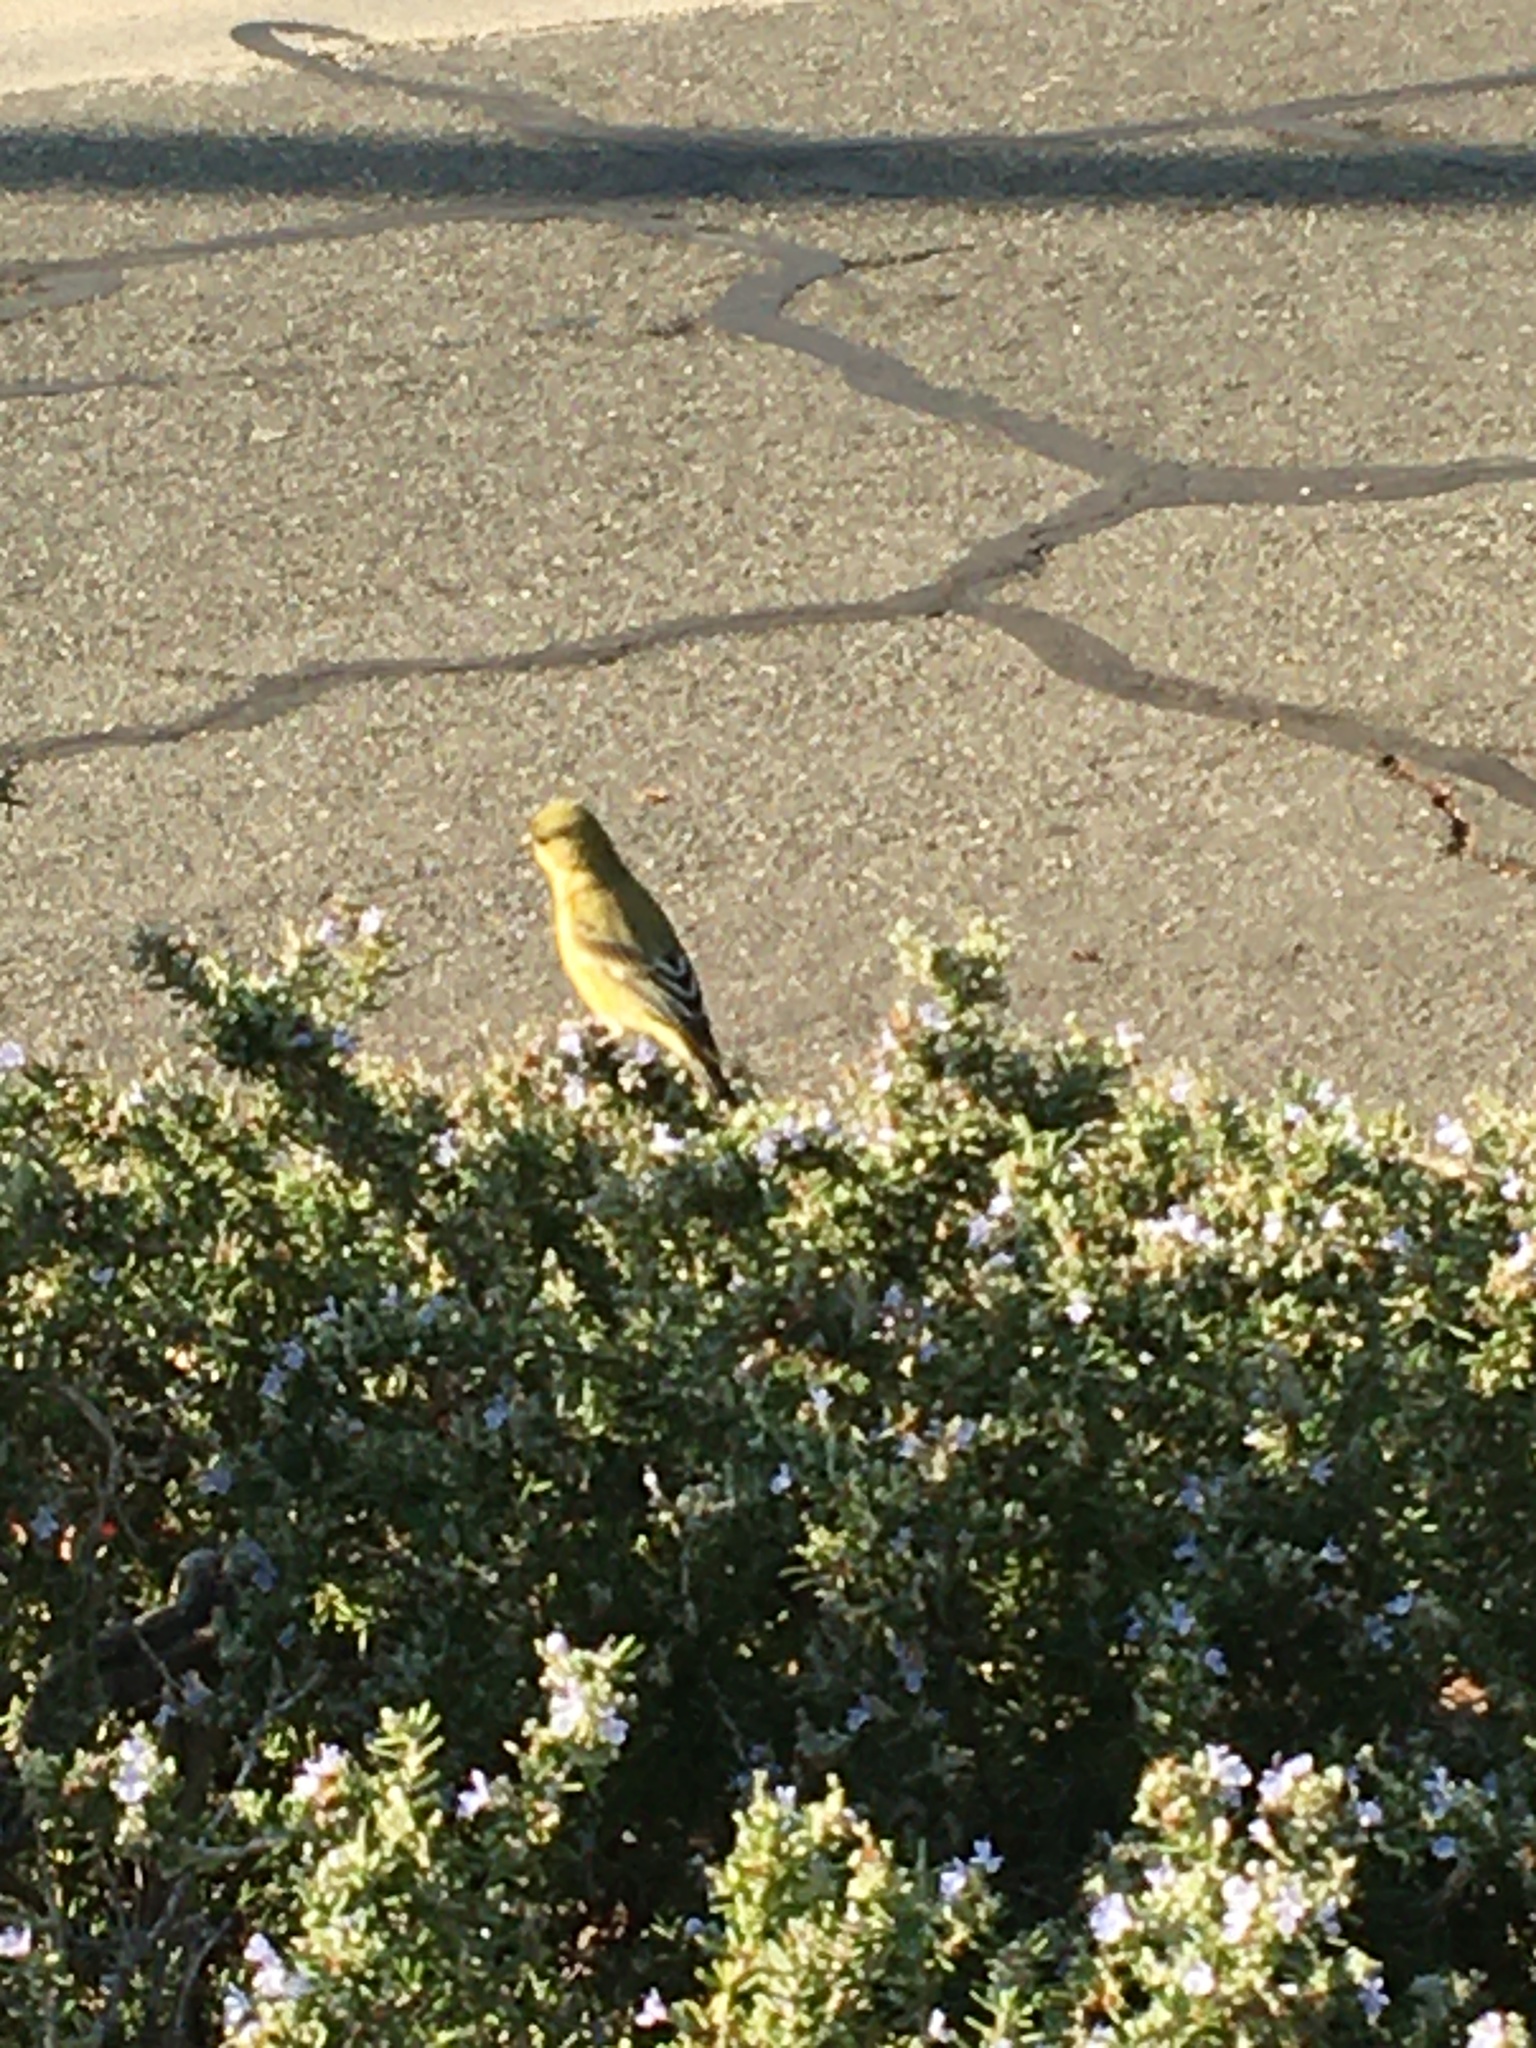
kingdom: Animalia
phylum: Chordata
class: Aves
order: Passeriformes
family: Fringillidae
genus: Spinus
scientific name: Spinus psaltria
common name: Lesser goldfinch
